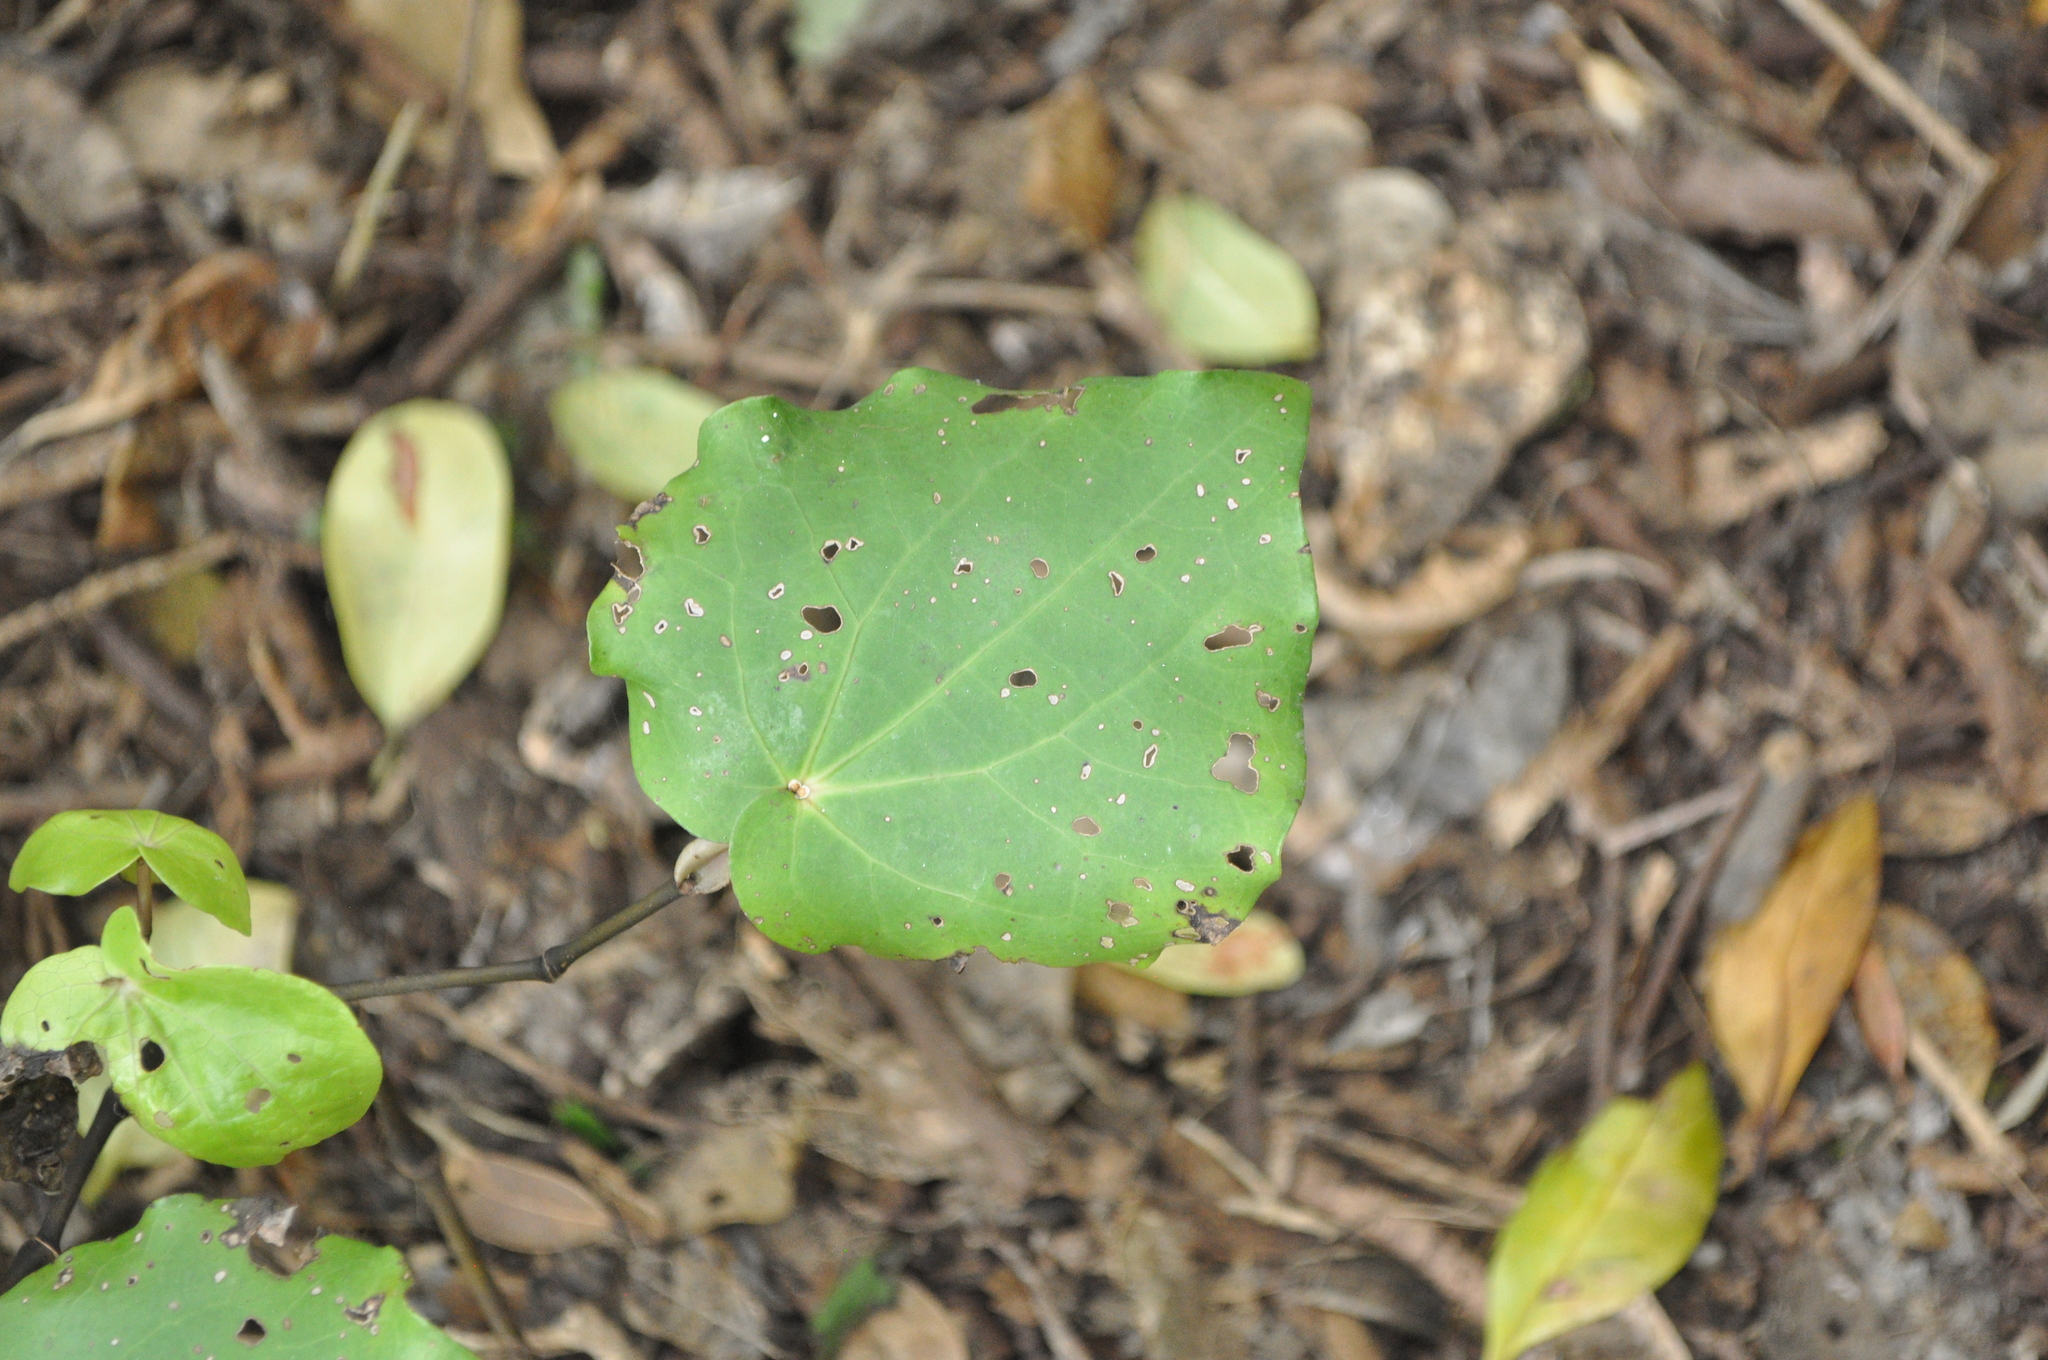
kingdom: Plantae
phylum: Tracheophyta
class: Magnoliopsida
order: Piperales
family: Piperaceae
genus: Macropiper
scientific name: Macropiper excelsum
